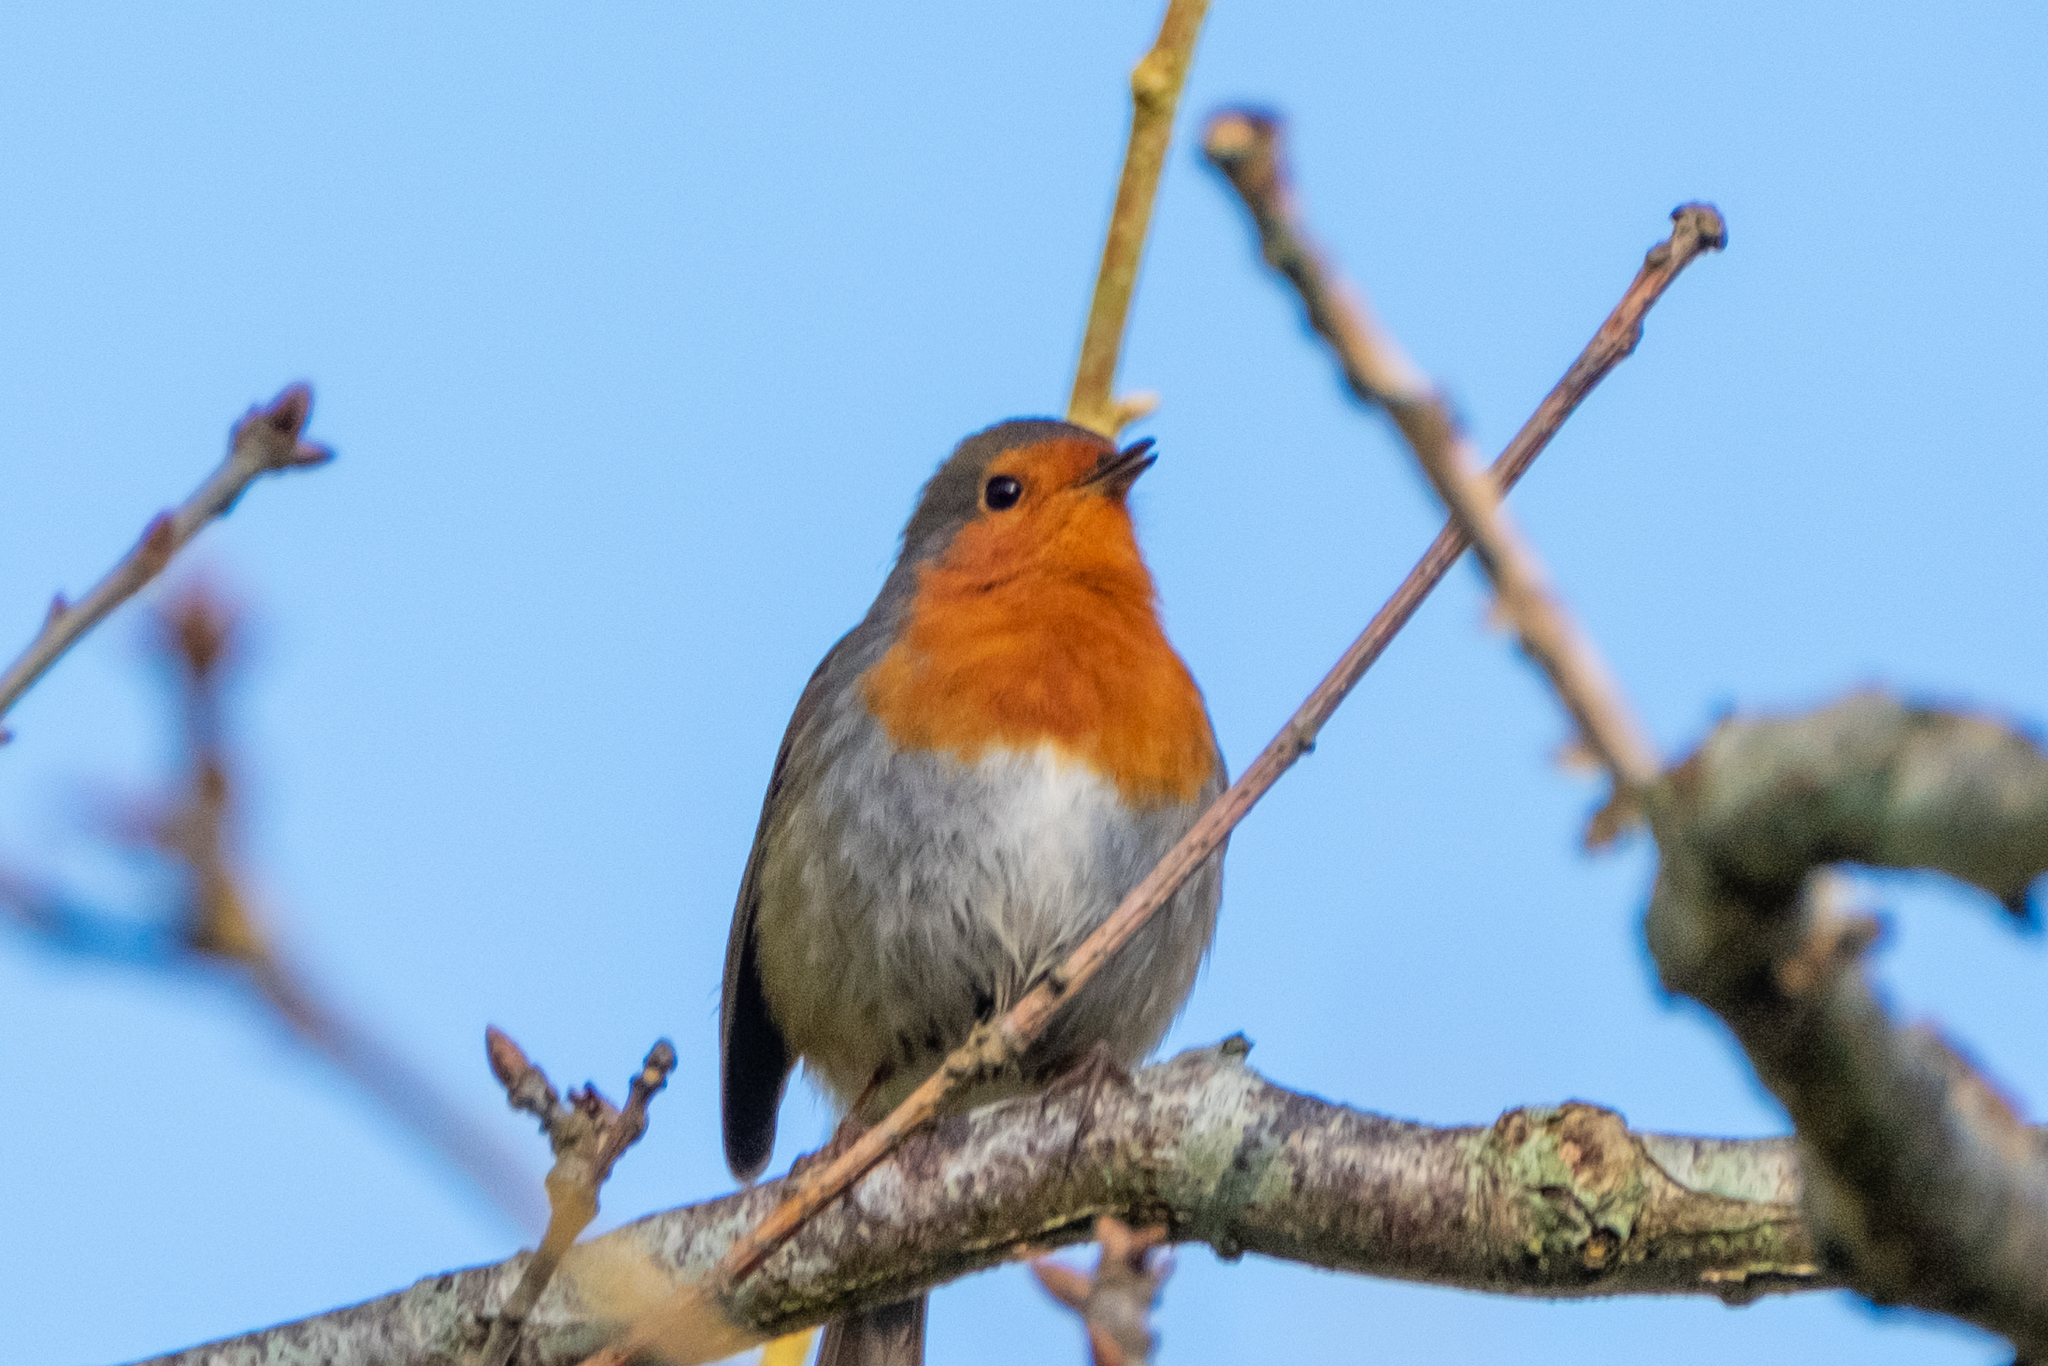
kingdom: Animalia
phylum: Chordata
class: Aves
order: Passeriformes
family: Muscicapidae
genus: Erithacus
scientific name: Erithacus rubecula
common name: European robin
